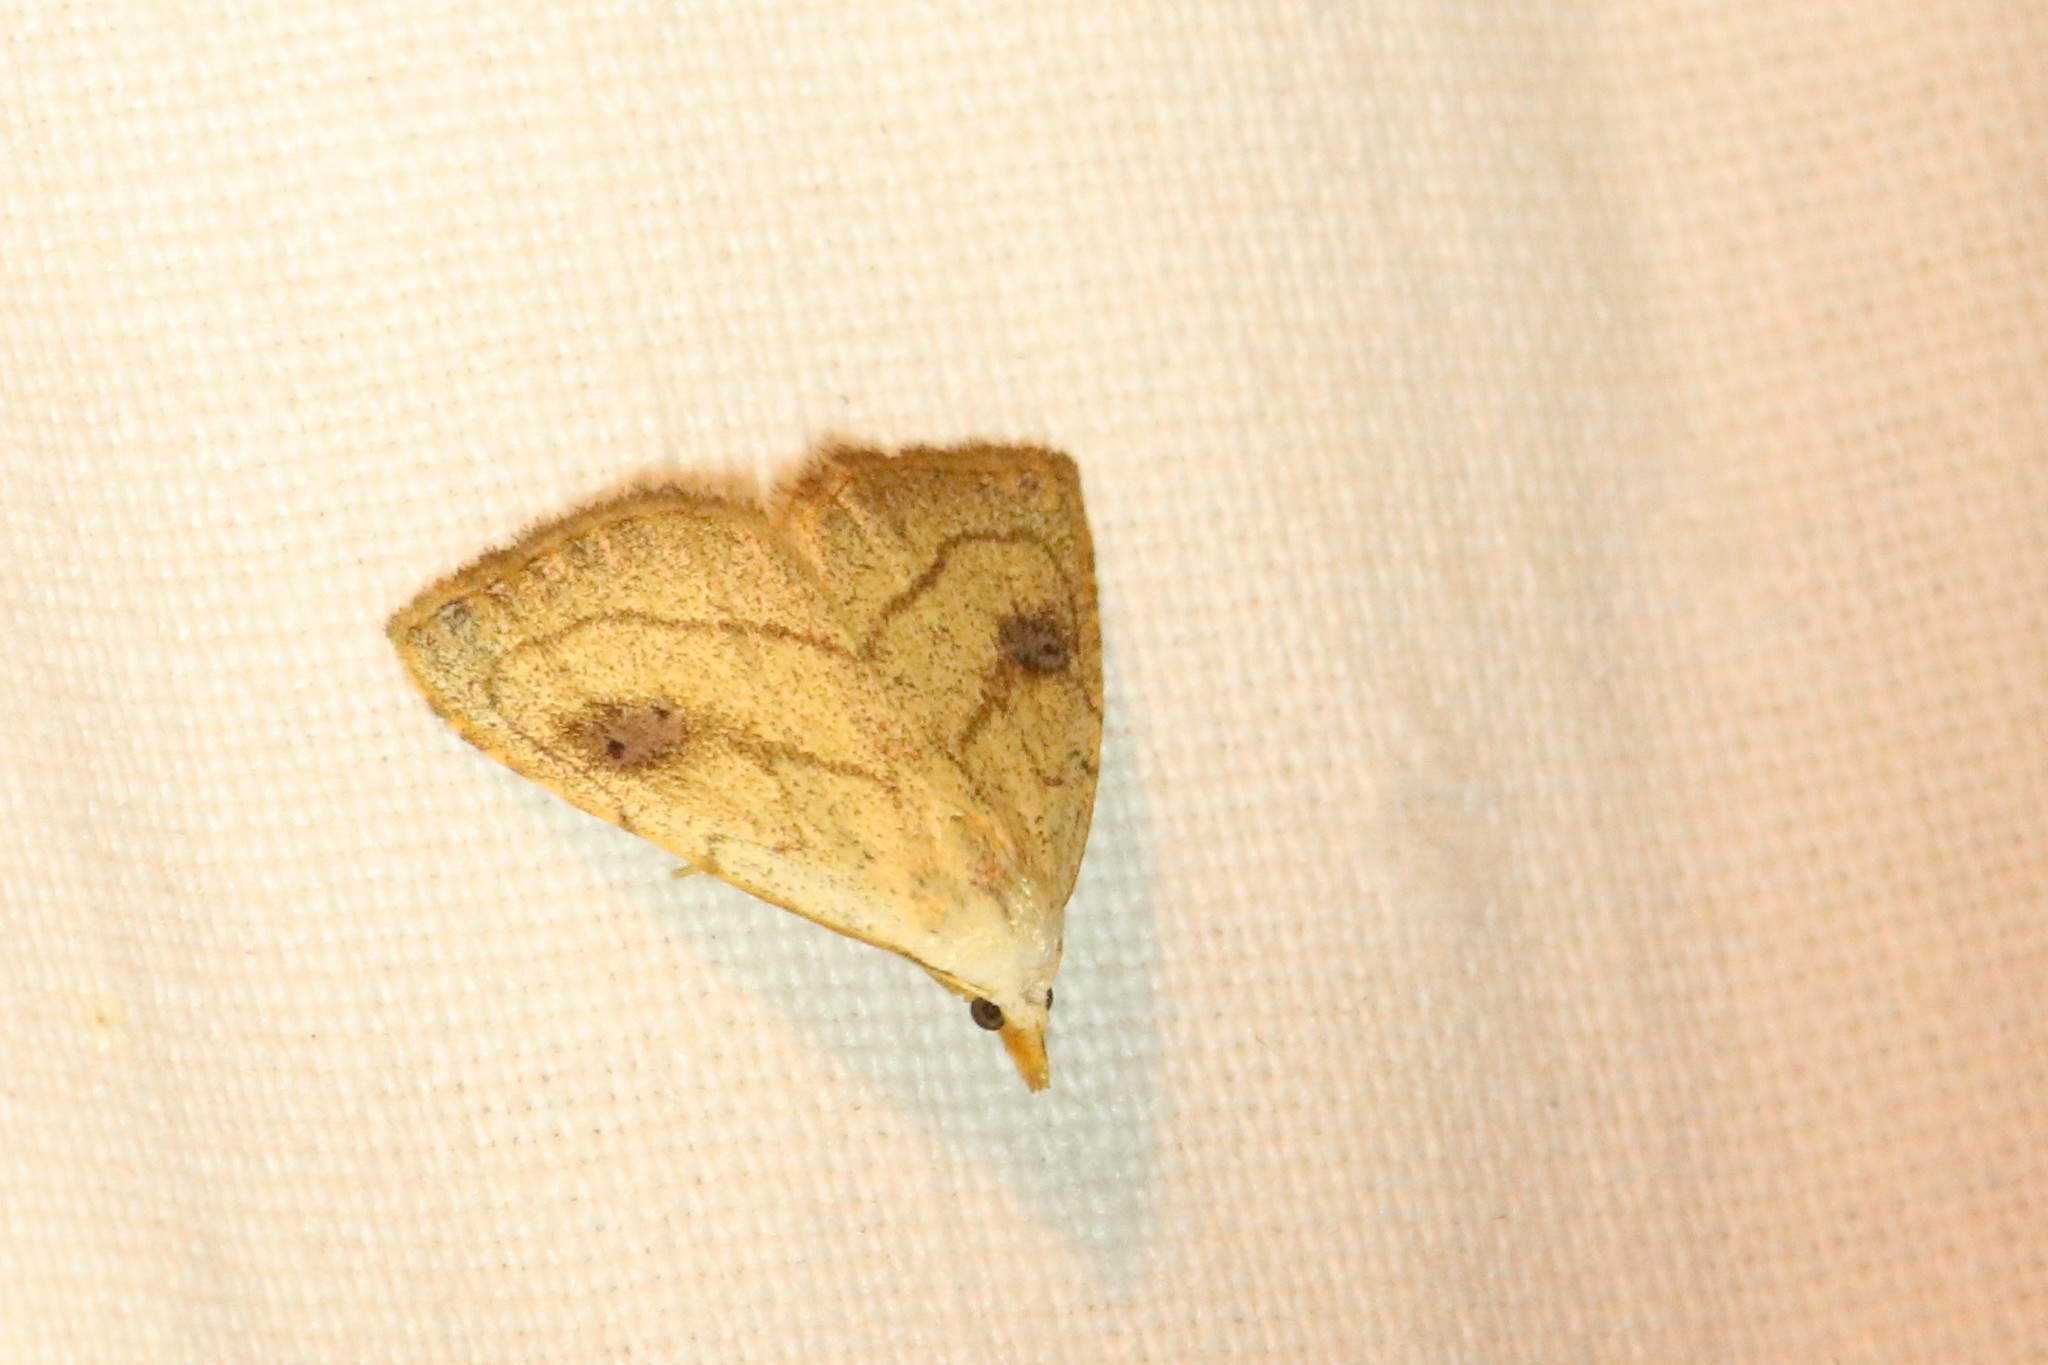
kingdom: Animalia
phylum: Arthropoda
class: Insecta
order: Lepidoptera
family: Erebidae
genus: Rivula
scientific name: Rivula propinqualis
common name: Spotted grass moth
